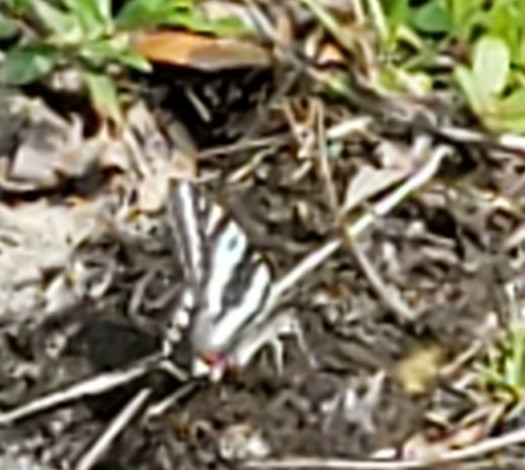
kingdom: Animalia
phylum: Arthropoda
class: Insecta
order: Lepidoptera
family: Papilionidae
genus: Protographium
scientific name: Protographium marcellus
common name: Zebra swallowtail
